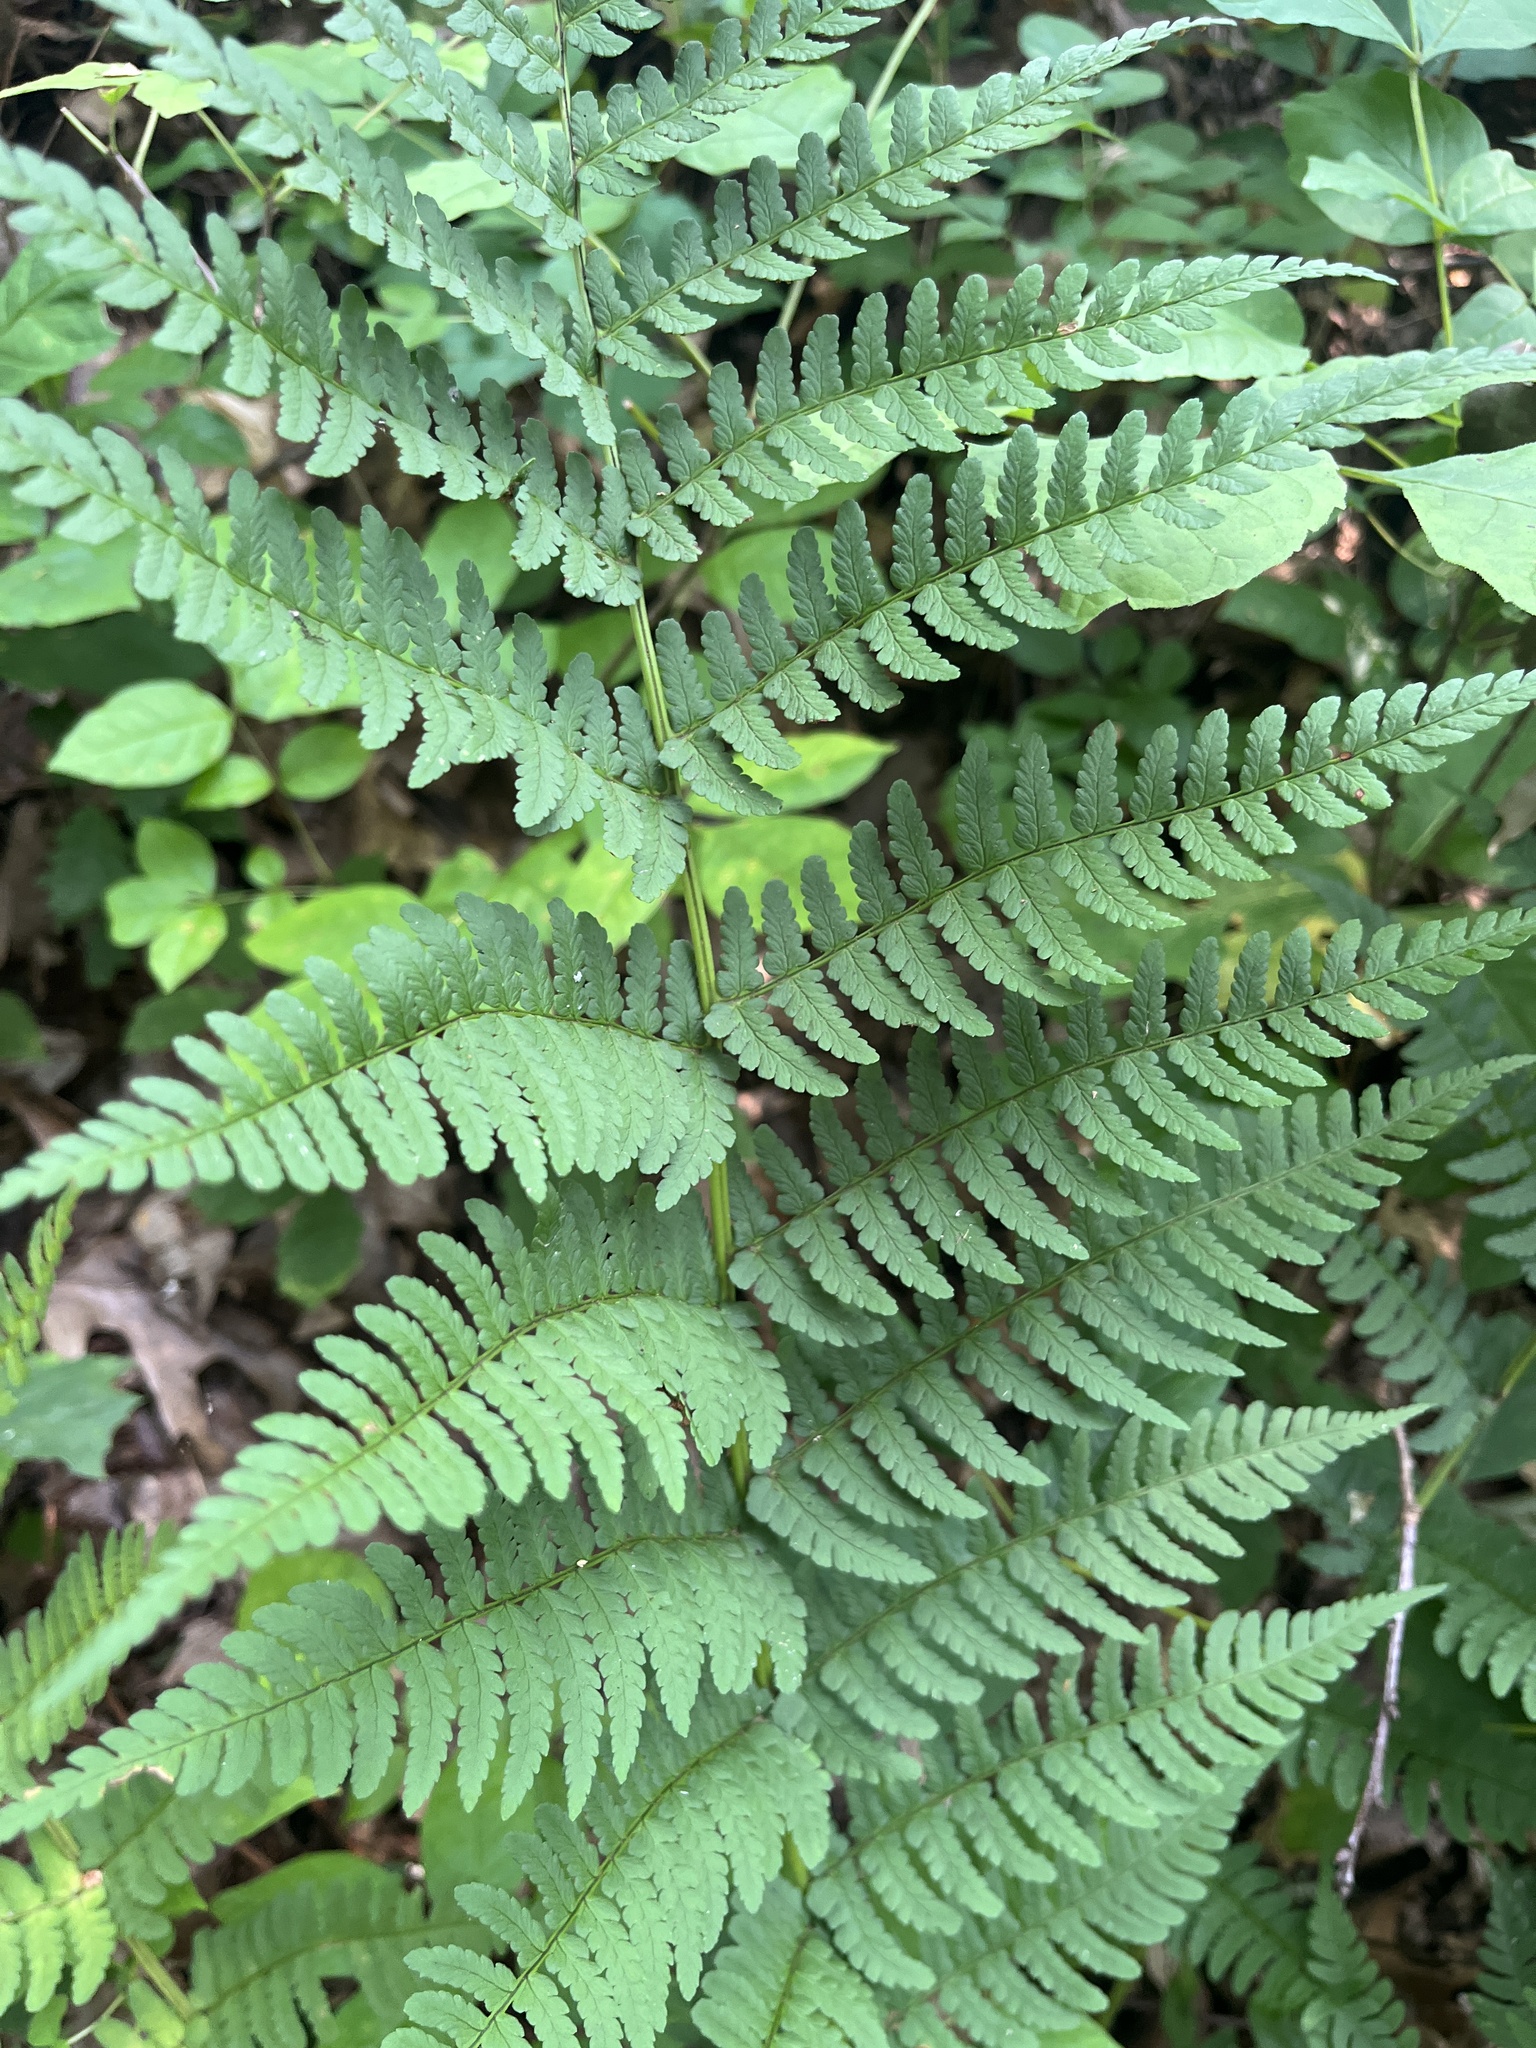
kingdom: Plantae
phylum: Tracheophyta
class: Polypodiopsida
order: Polypodiales
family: Dryopteridaceae
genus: Dryopteris
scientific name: Dryopteris marginalis
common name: Marginal wood fern
